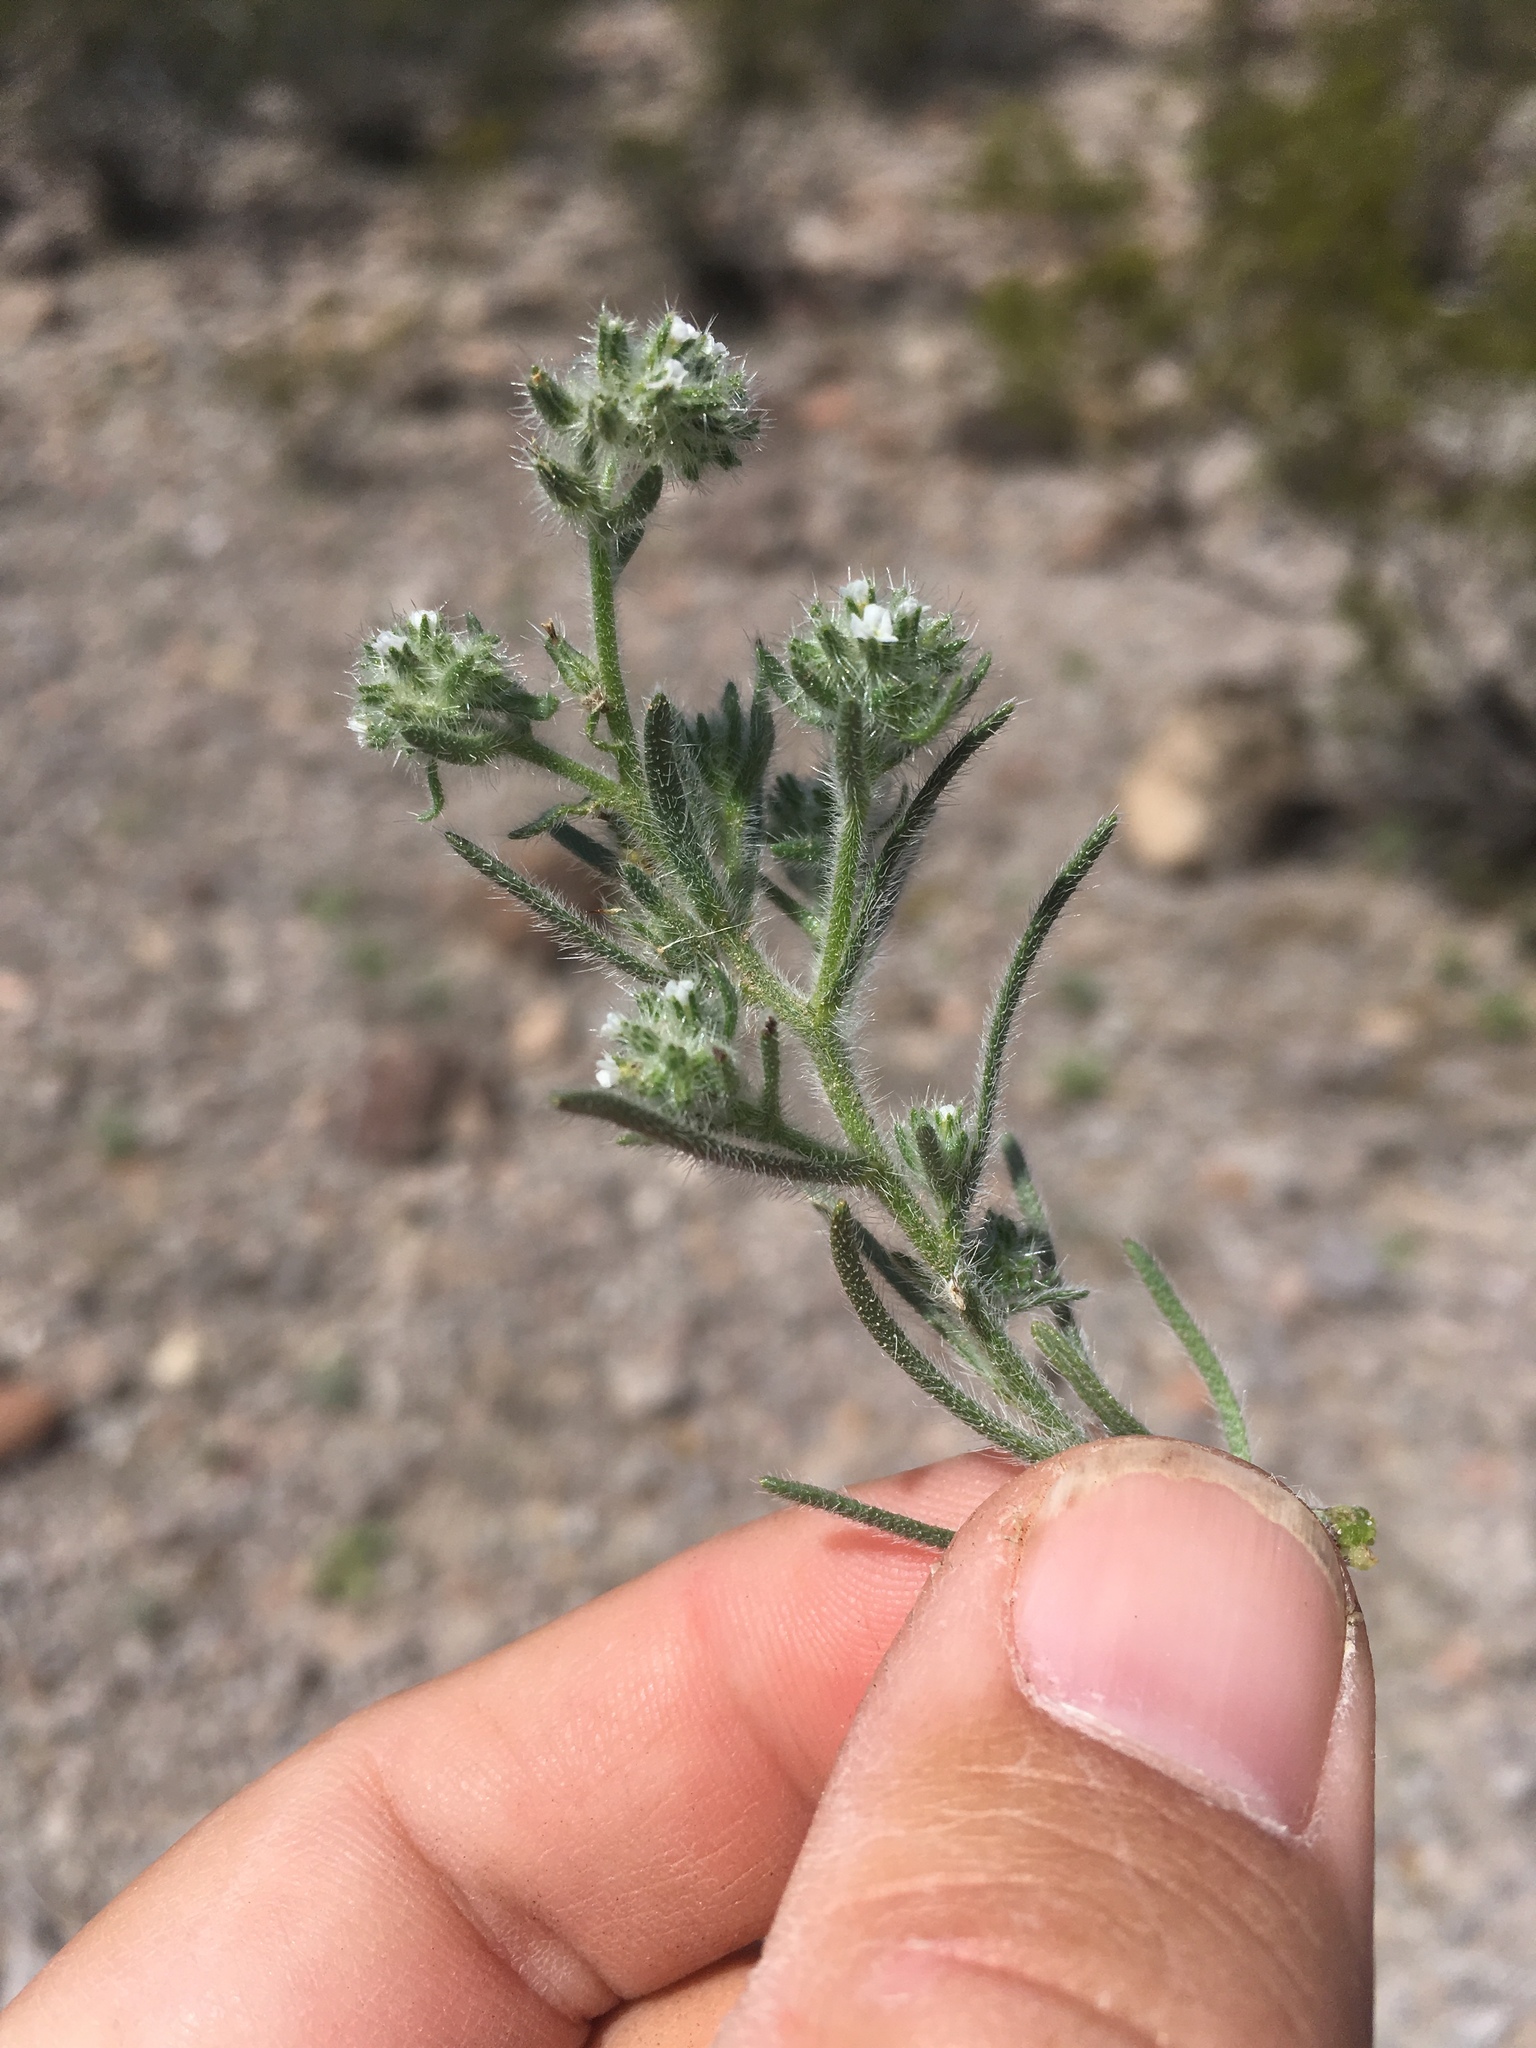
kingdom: Plantae
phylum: Tracheophyta
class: Magnoliopsida
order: Boraginales
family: Boraginaceae
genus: Johnstonella
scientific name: Johnstonella angustifolia
